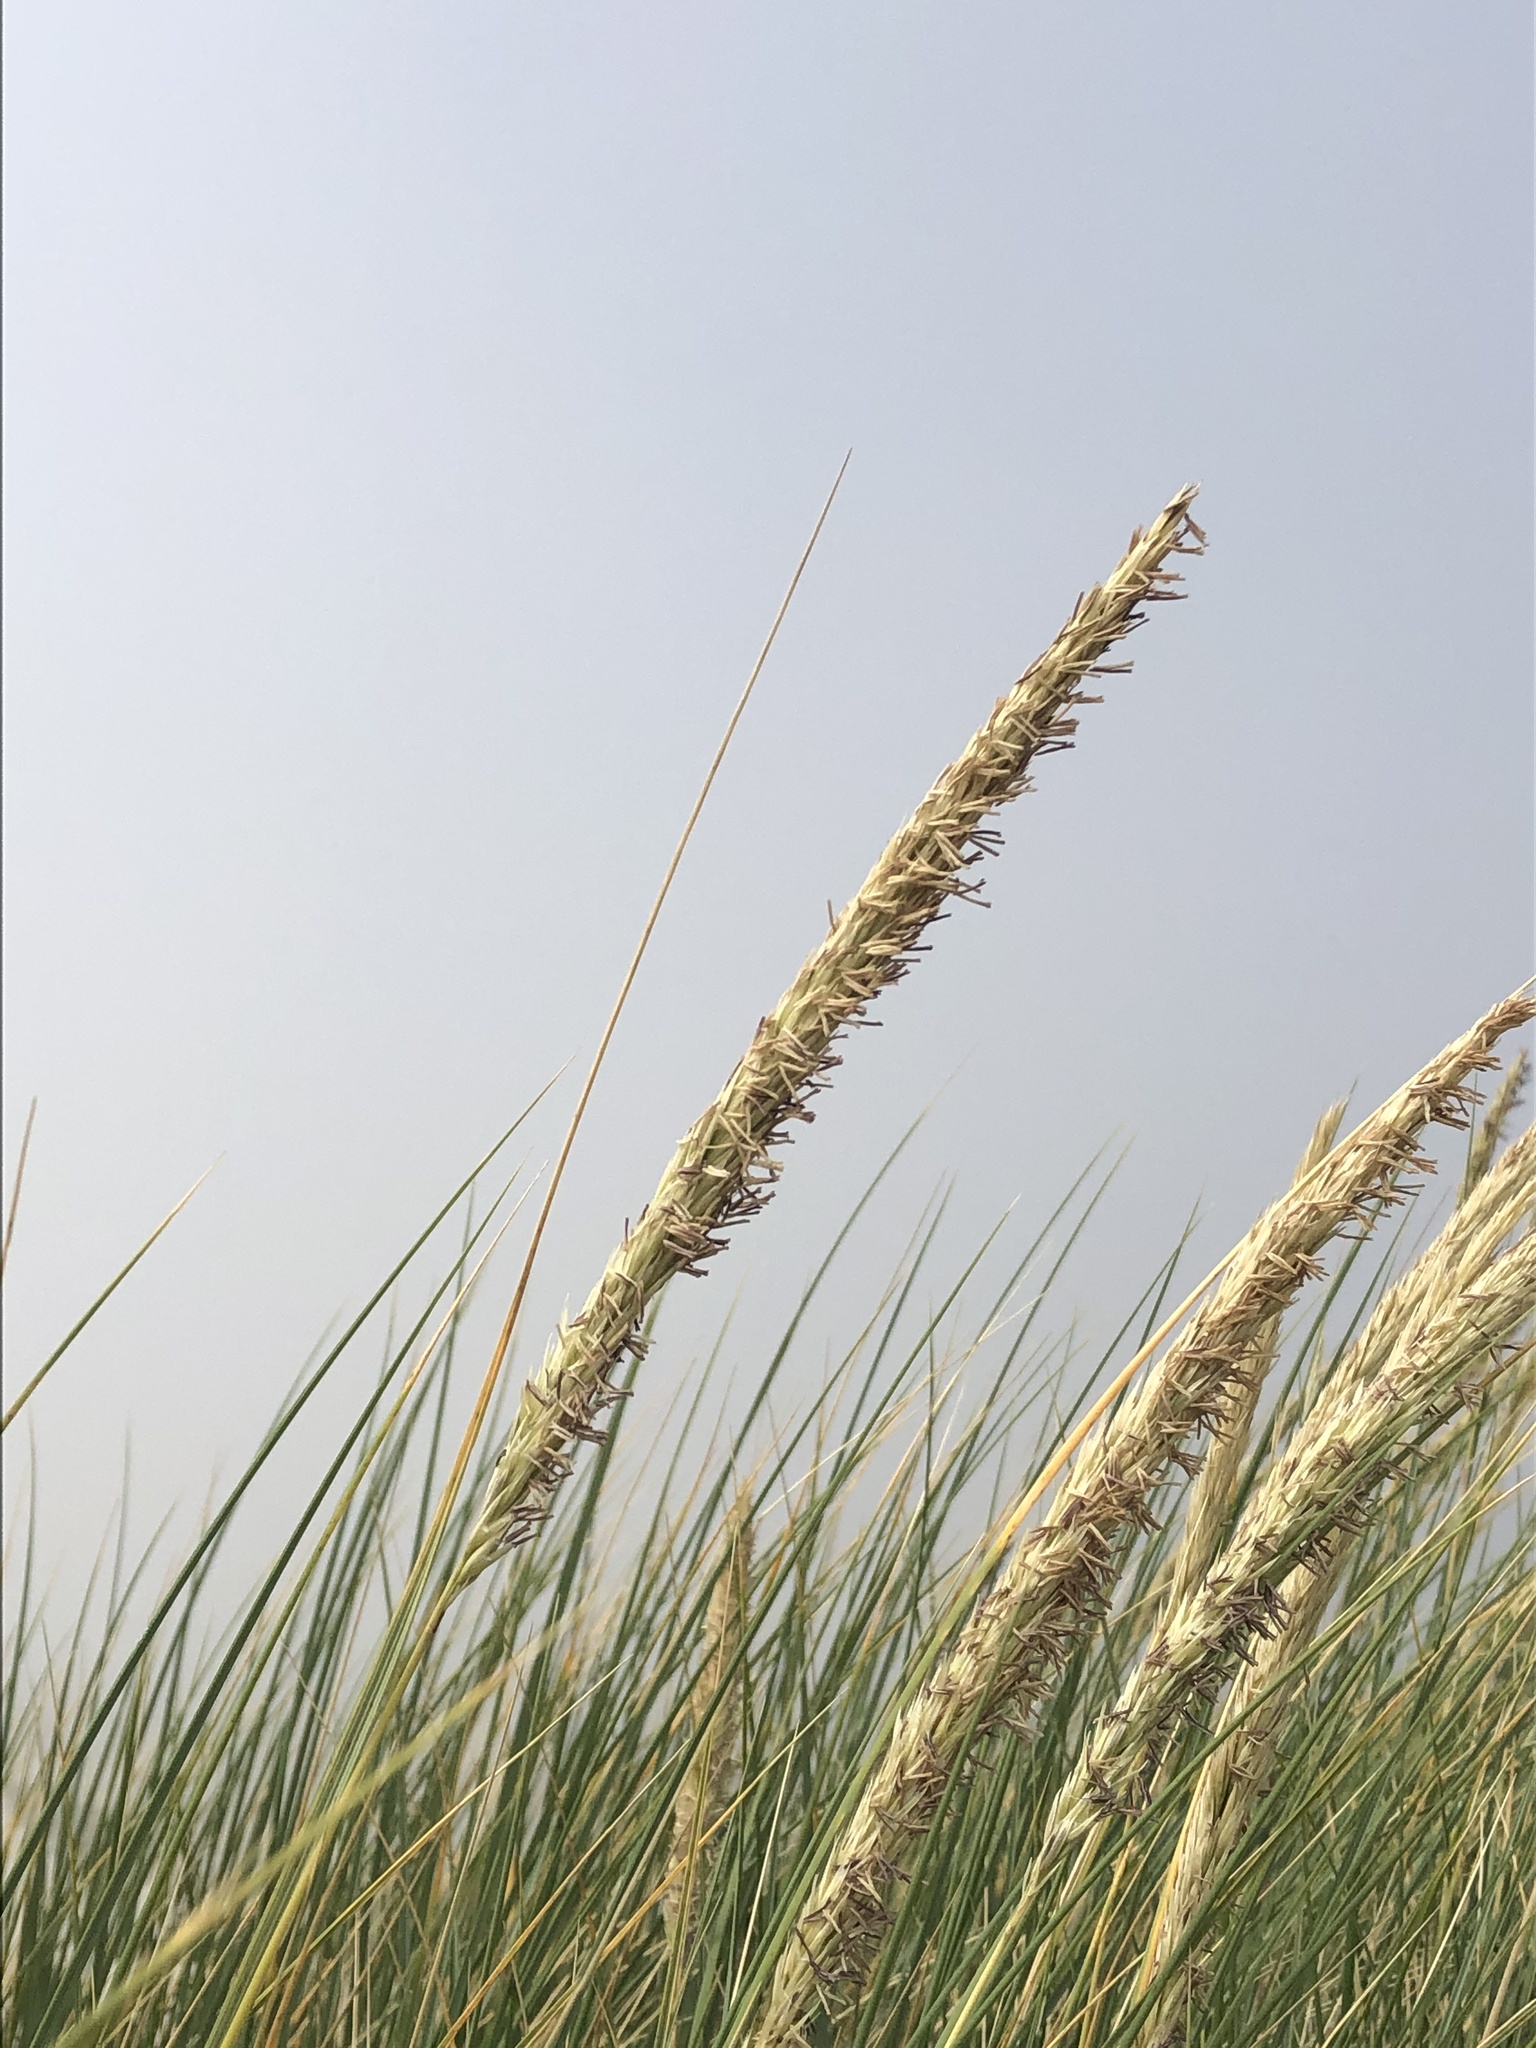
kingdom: Plantae
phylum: Tracheophyta
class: Liliopsida
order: Poales
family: Poaceae
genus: Calamagrostis
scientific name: Calamagrostis arenaria
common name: European beachgrass
